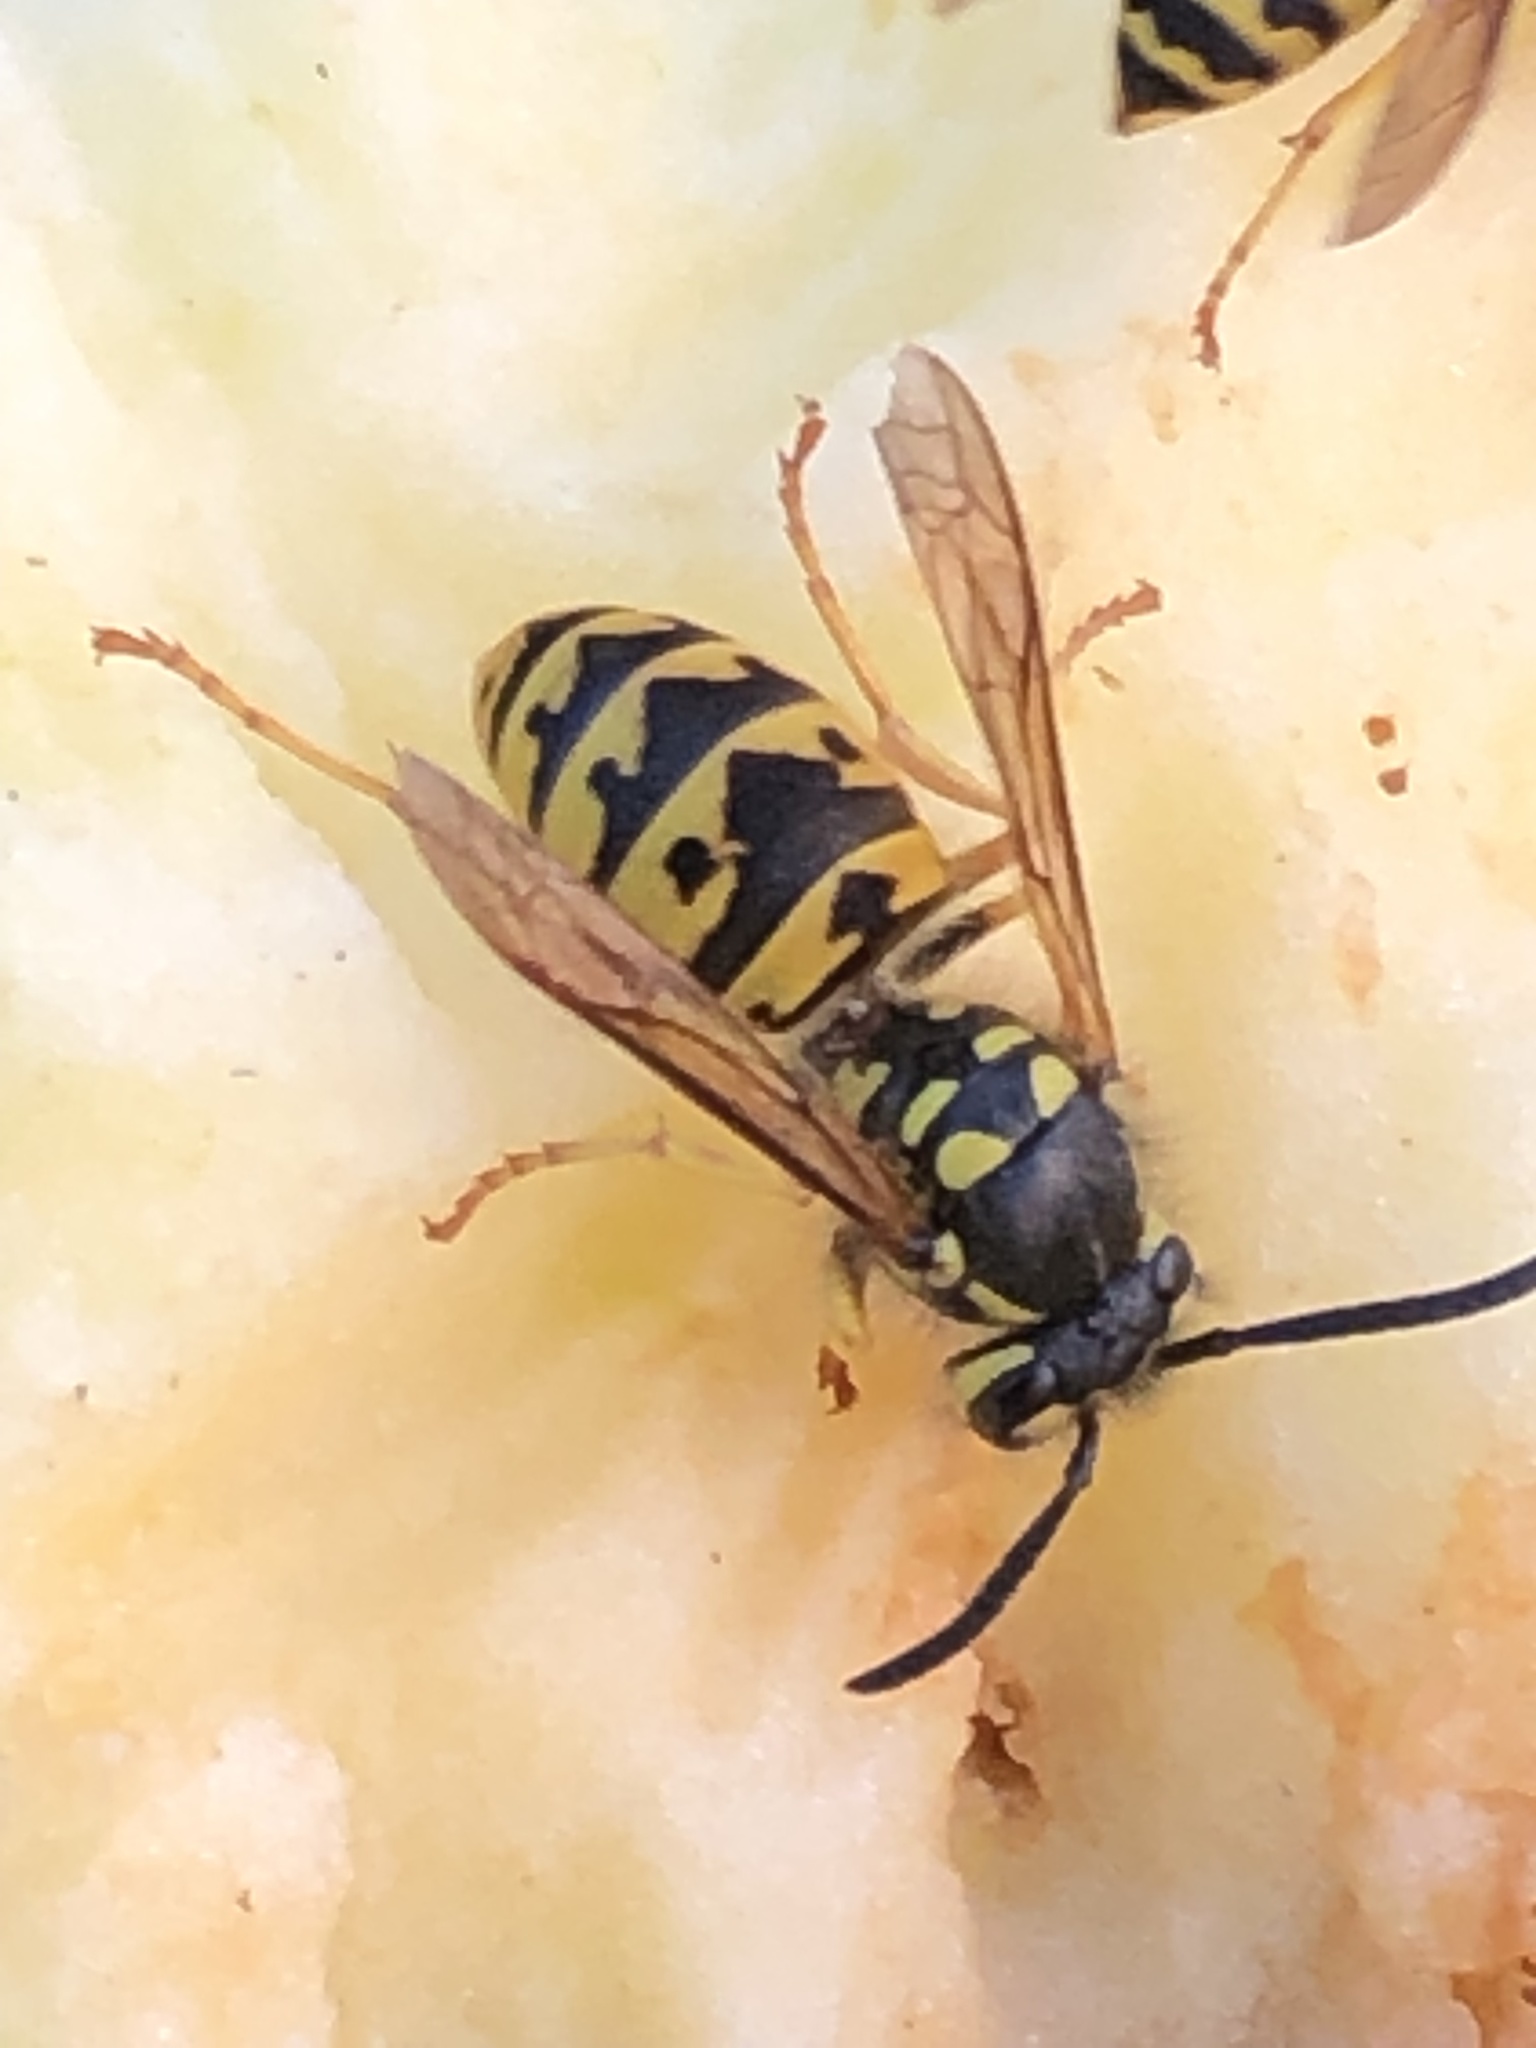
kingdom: Animalia
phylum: Arthropoda
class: Insecta
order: Hymenoptera
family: Vespidae
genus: Vespula
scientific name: Vespula germanica
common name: German wasp
